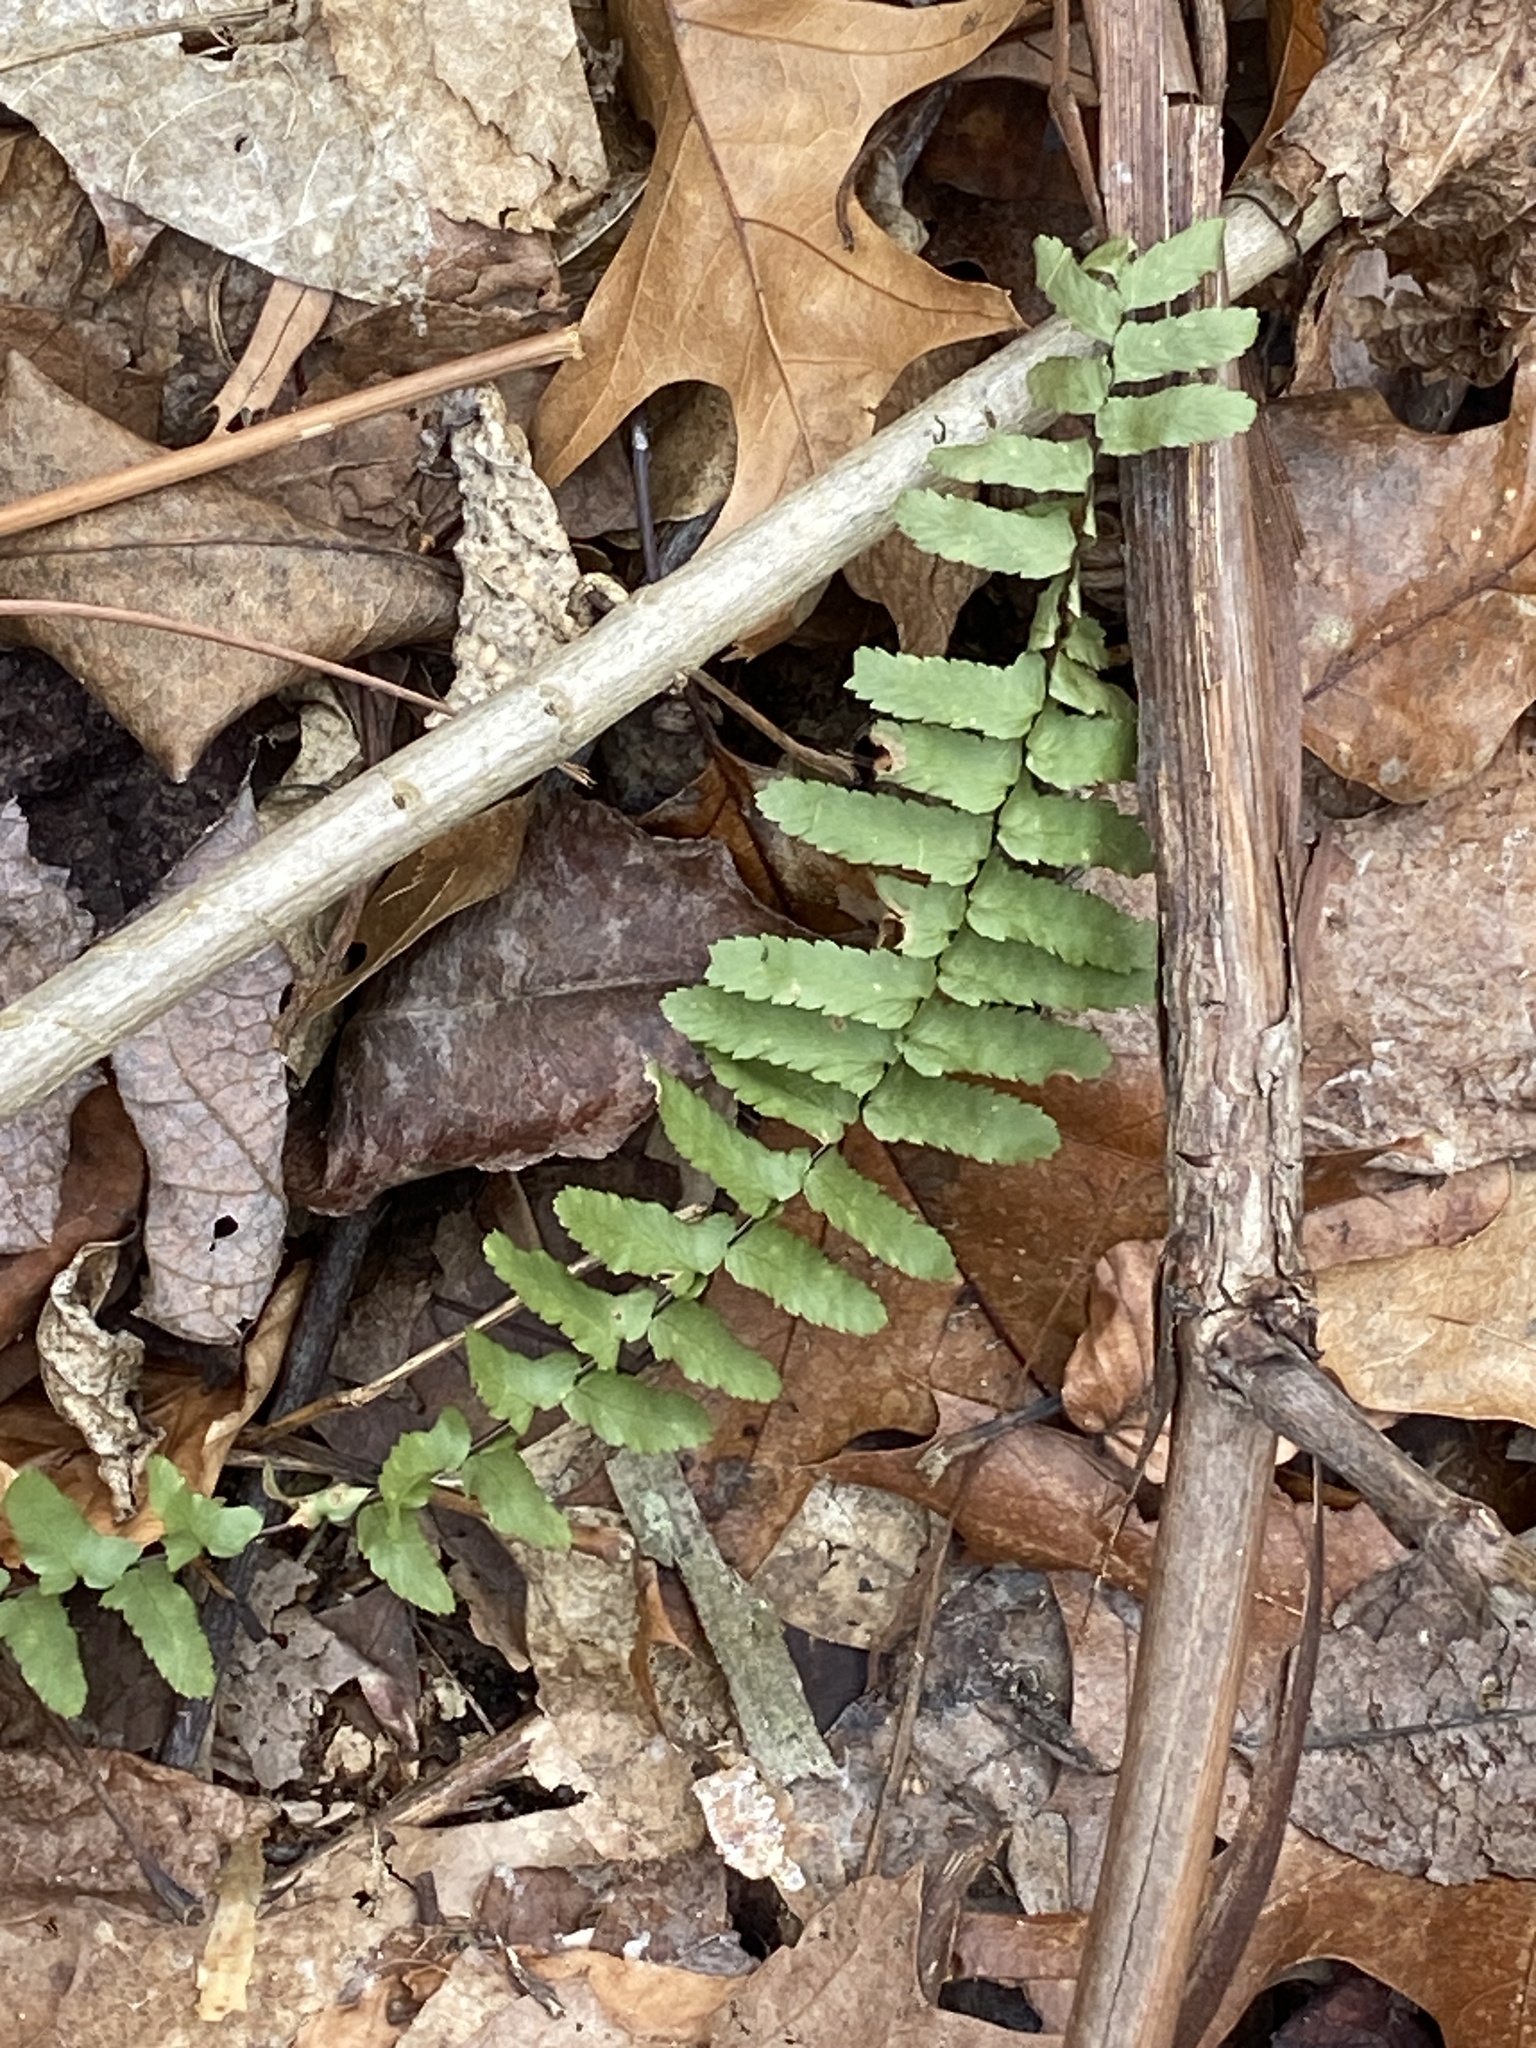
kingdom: Plantae
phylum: Tracheophyta
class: Polypodiopsida
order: Polypodiales
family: Aspleniaceae
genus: Asplenium
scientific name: Asplenium platyneuron
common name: Ebony spleenwort
